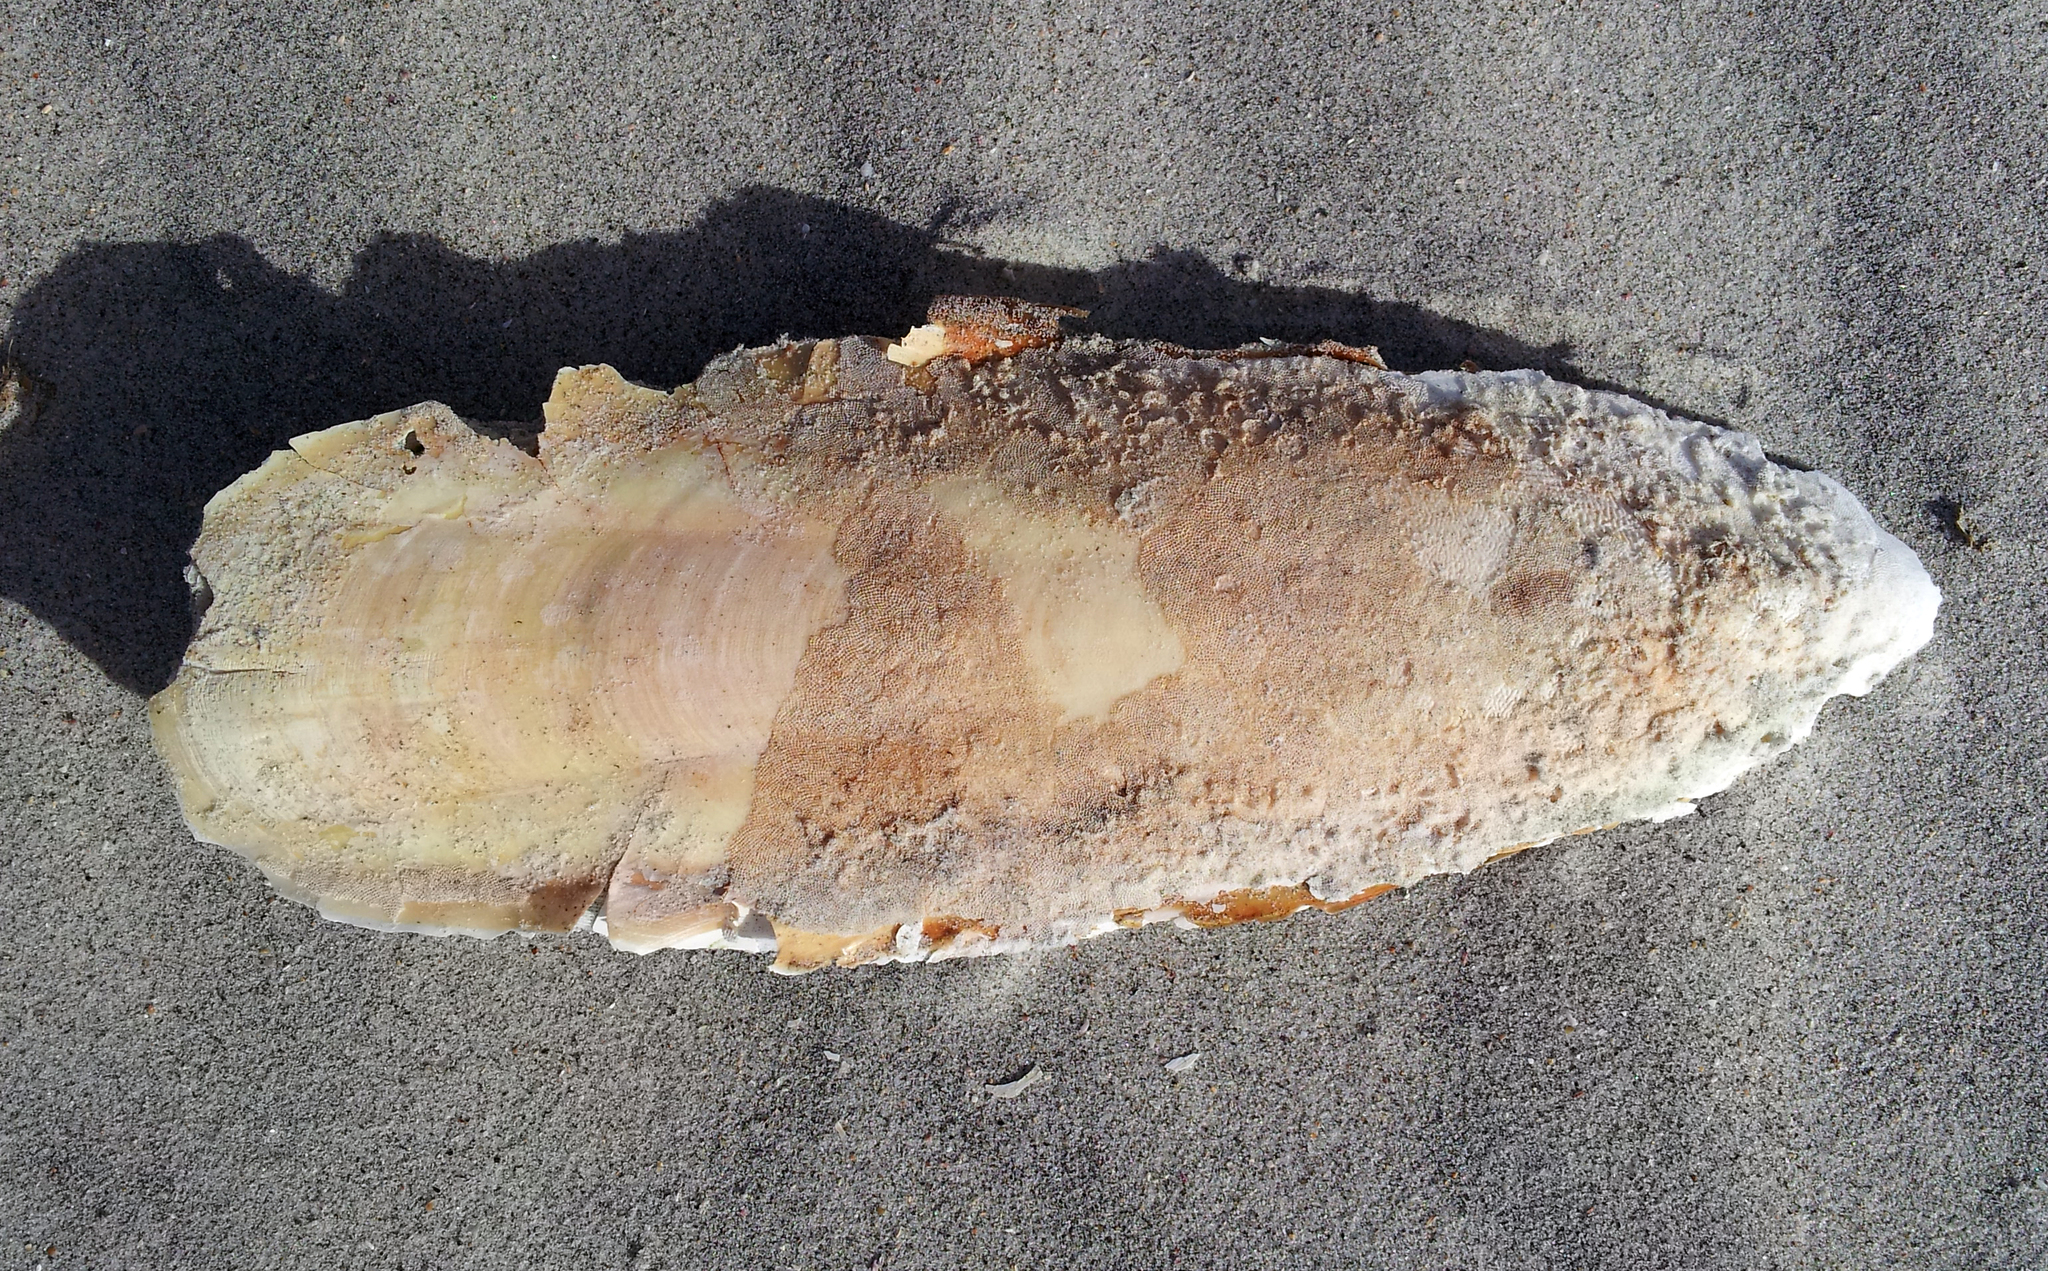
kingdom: Animalia
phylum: Mollusca
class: Cephalopoda
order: Sepiida
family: Sepiidae
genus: Ascarosepion
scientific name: Ascarosepion apama
